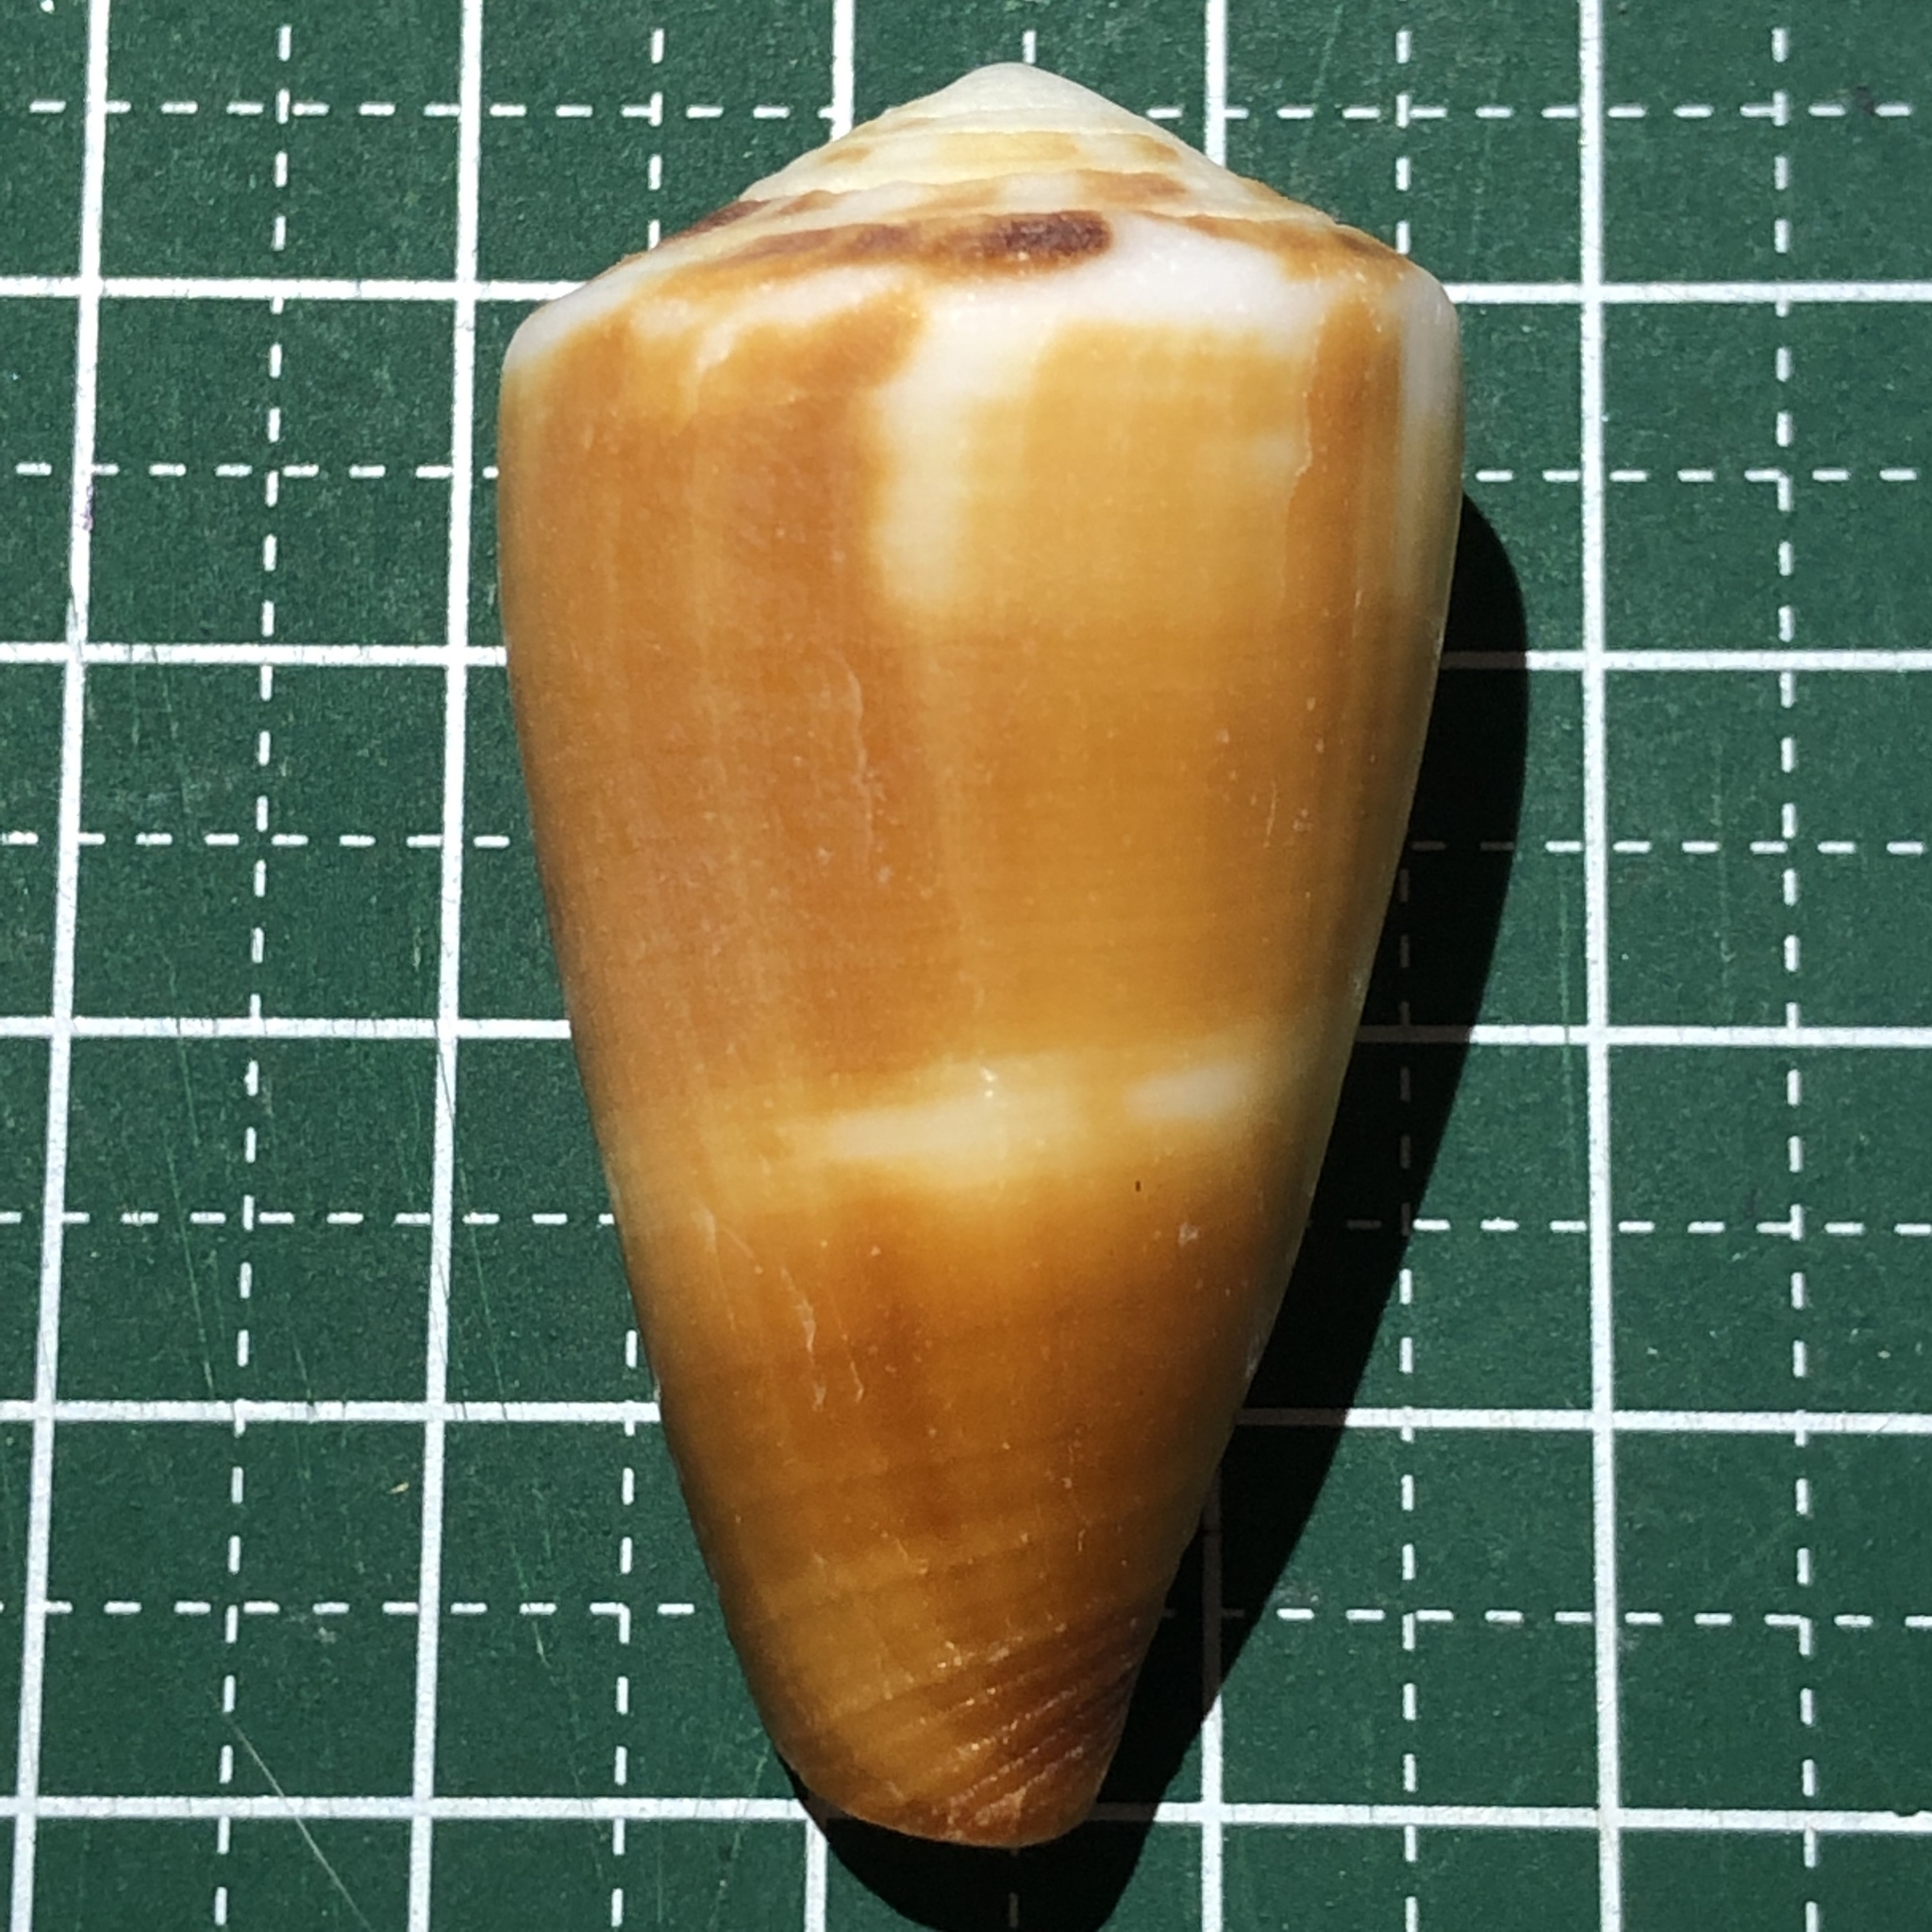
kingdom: Animalia
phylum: Mollusca
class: Gastropoda
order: Neogastropoda
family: Conidae
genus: Conus
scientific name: Conus planorbis
